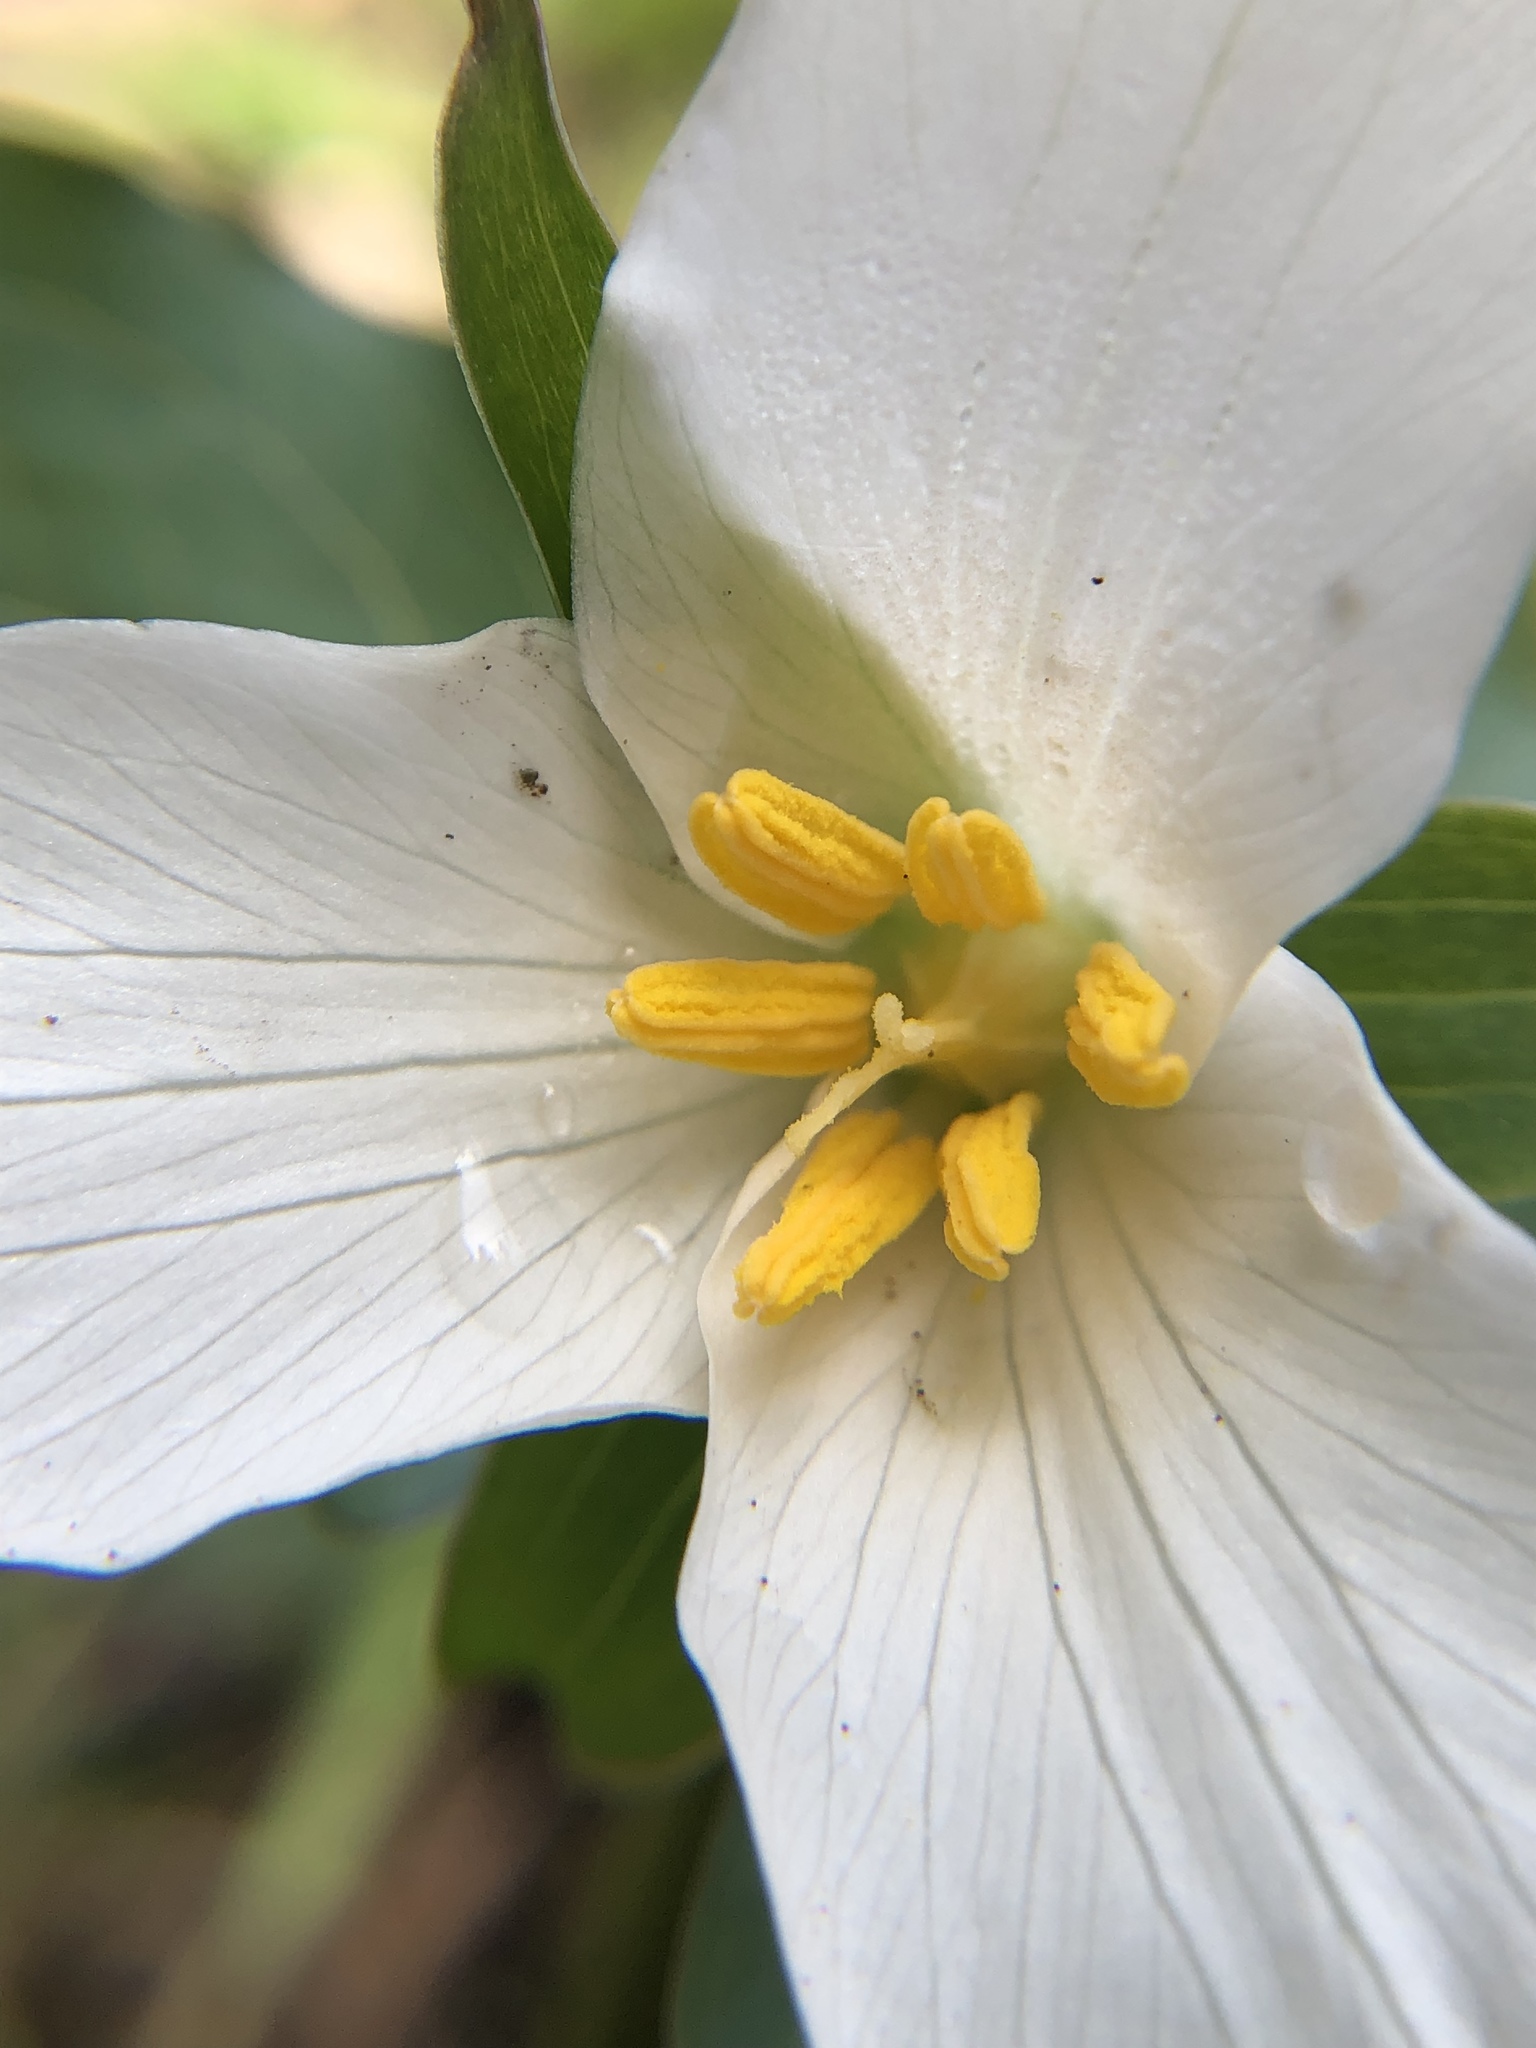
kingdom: Plantae
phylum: Tracheophyta
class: Liliopsida
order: Liliales
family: Melanthiaceae
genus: Trillium
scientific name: Trillium ovatum
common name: Pacific trillium
